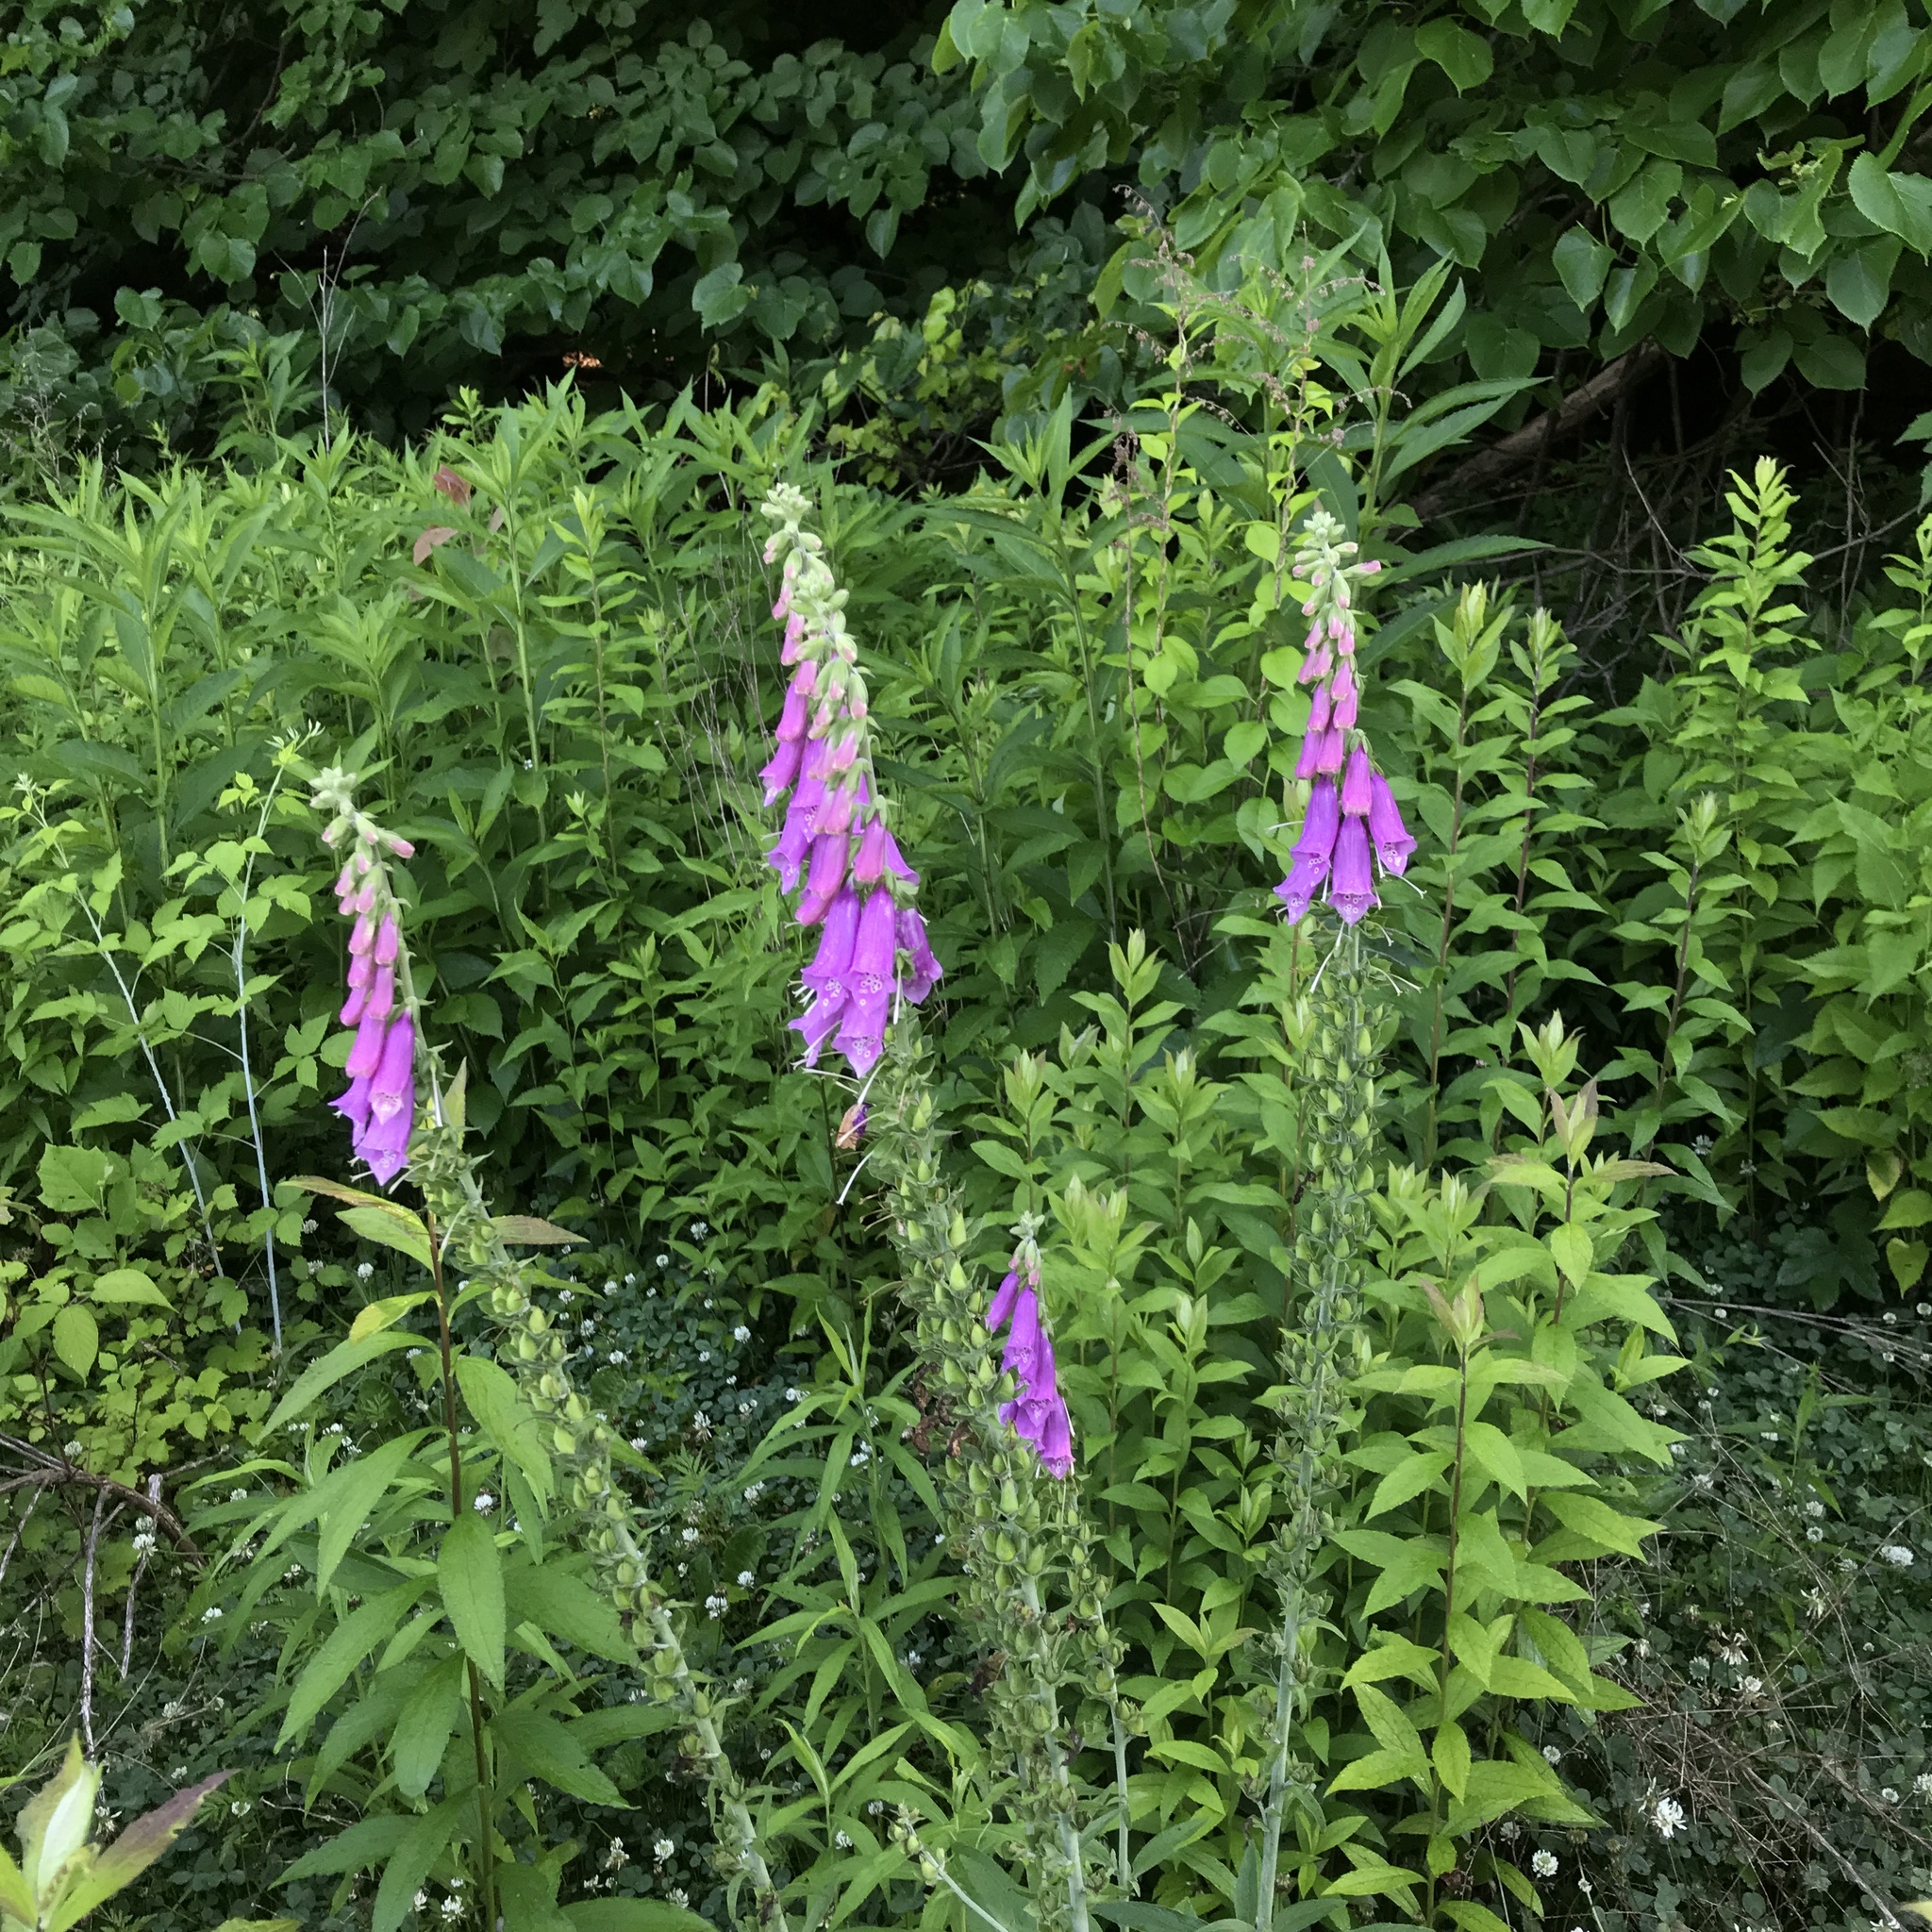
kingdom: Plantae
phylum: Tracheophyta
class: Magnoliopsida
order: Lamiales
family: Plantaginaceae
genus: Digitalis
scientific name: Digitalis purpurea
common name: Foxglove
